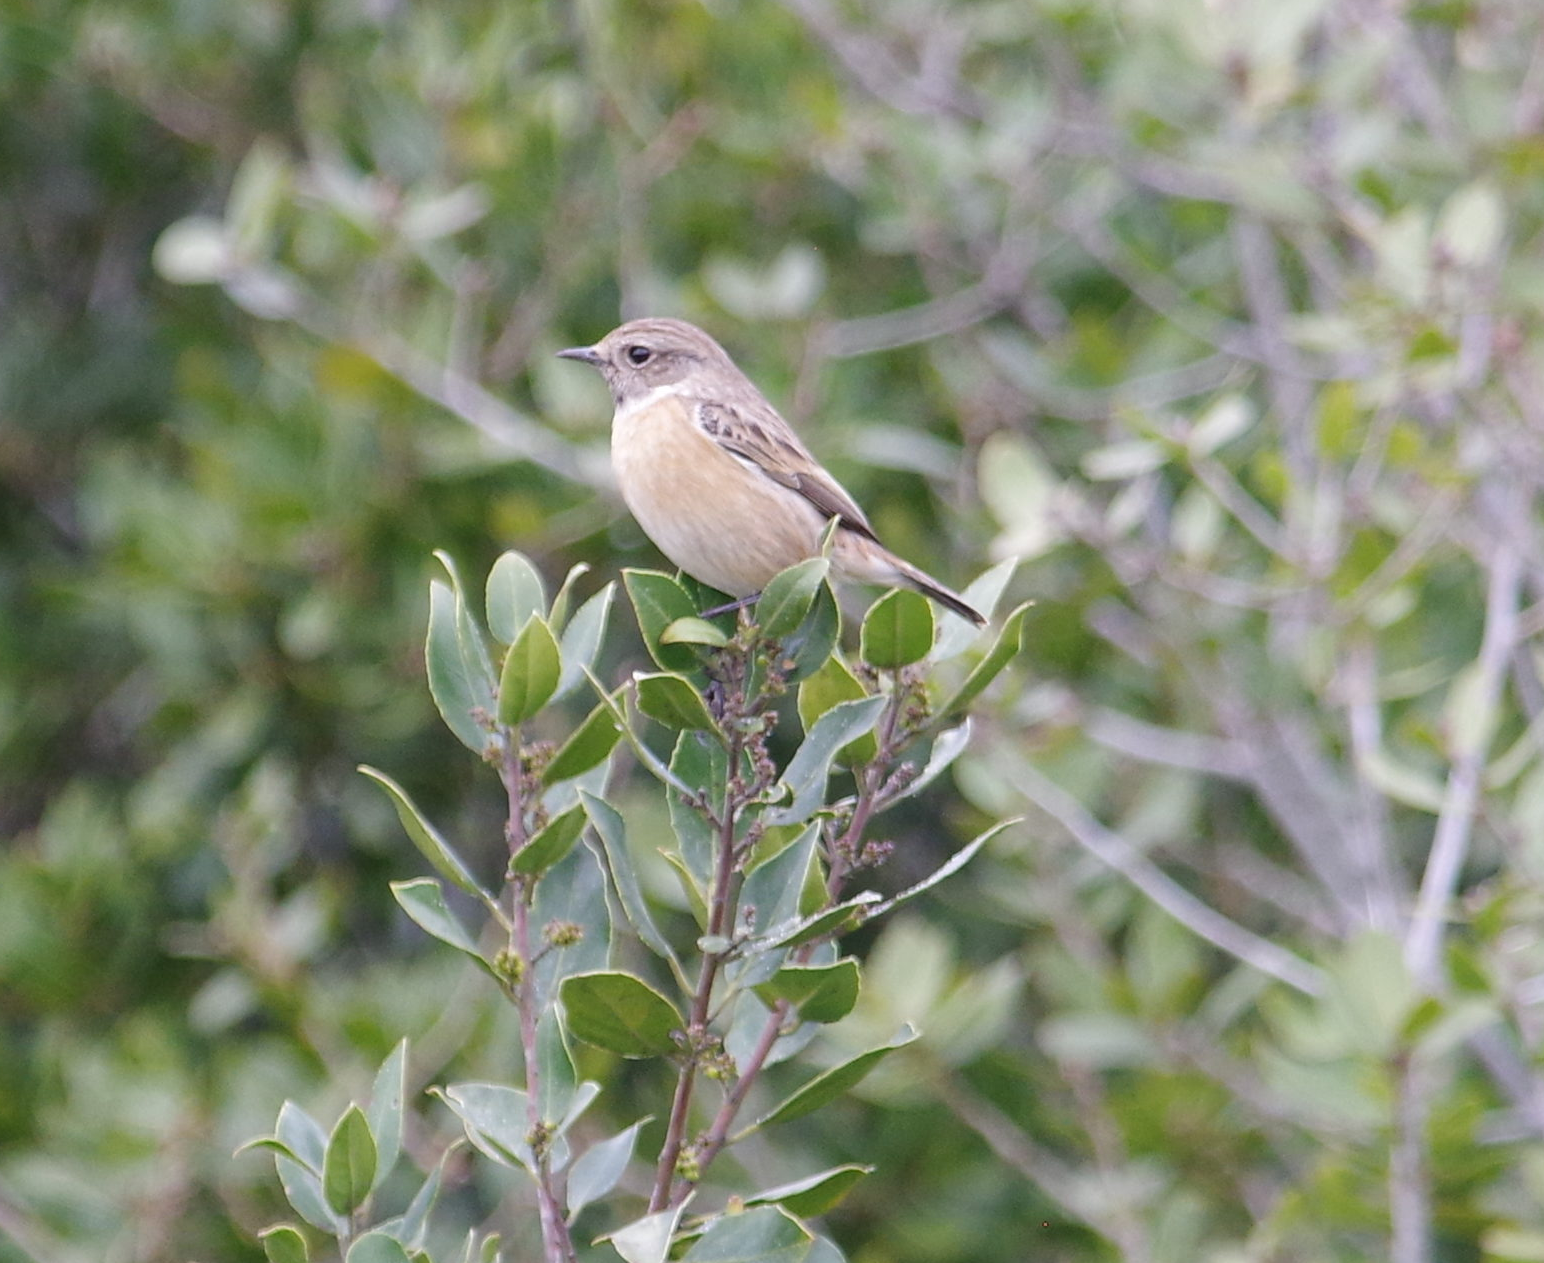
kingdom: Animalia
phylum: Chordata
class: Aves
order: Passeriformes
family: Muscicapidae
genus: Saxicola
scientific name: Saxicola rubicola
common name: European stonechat
